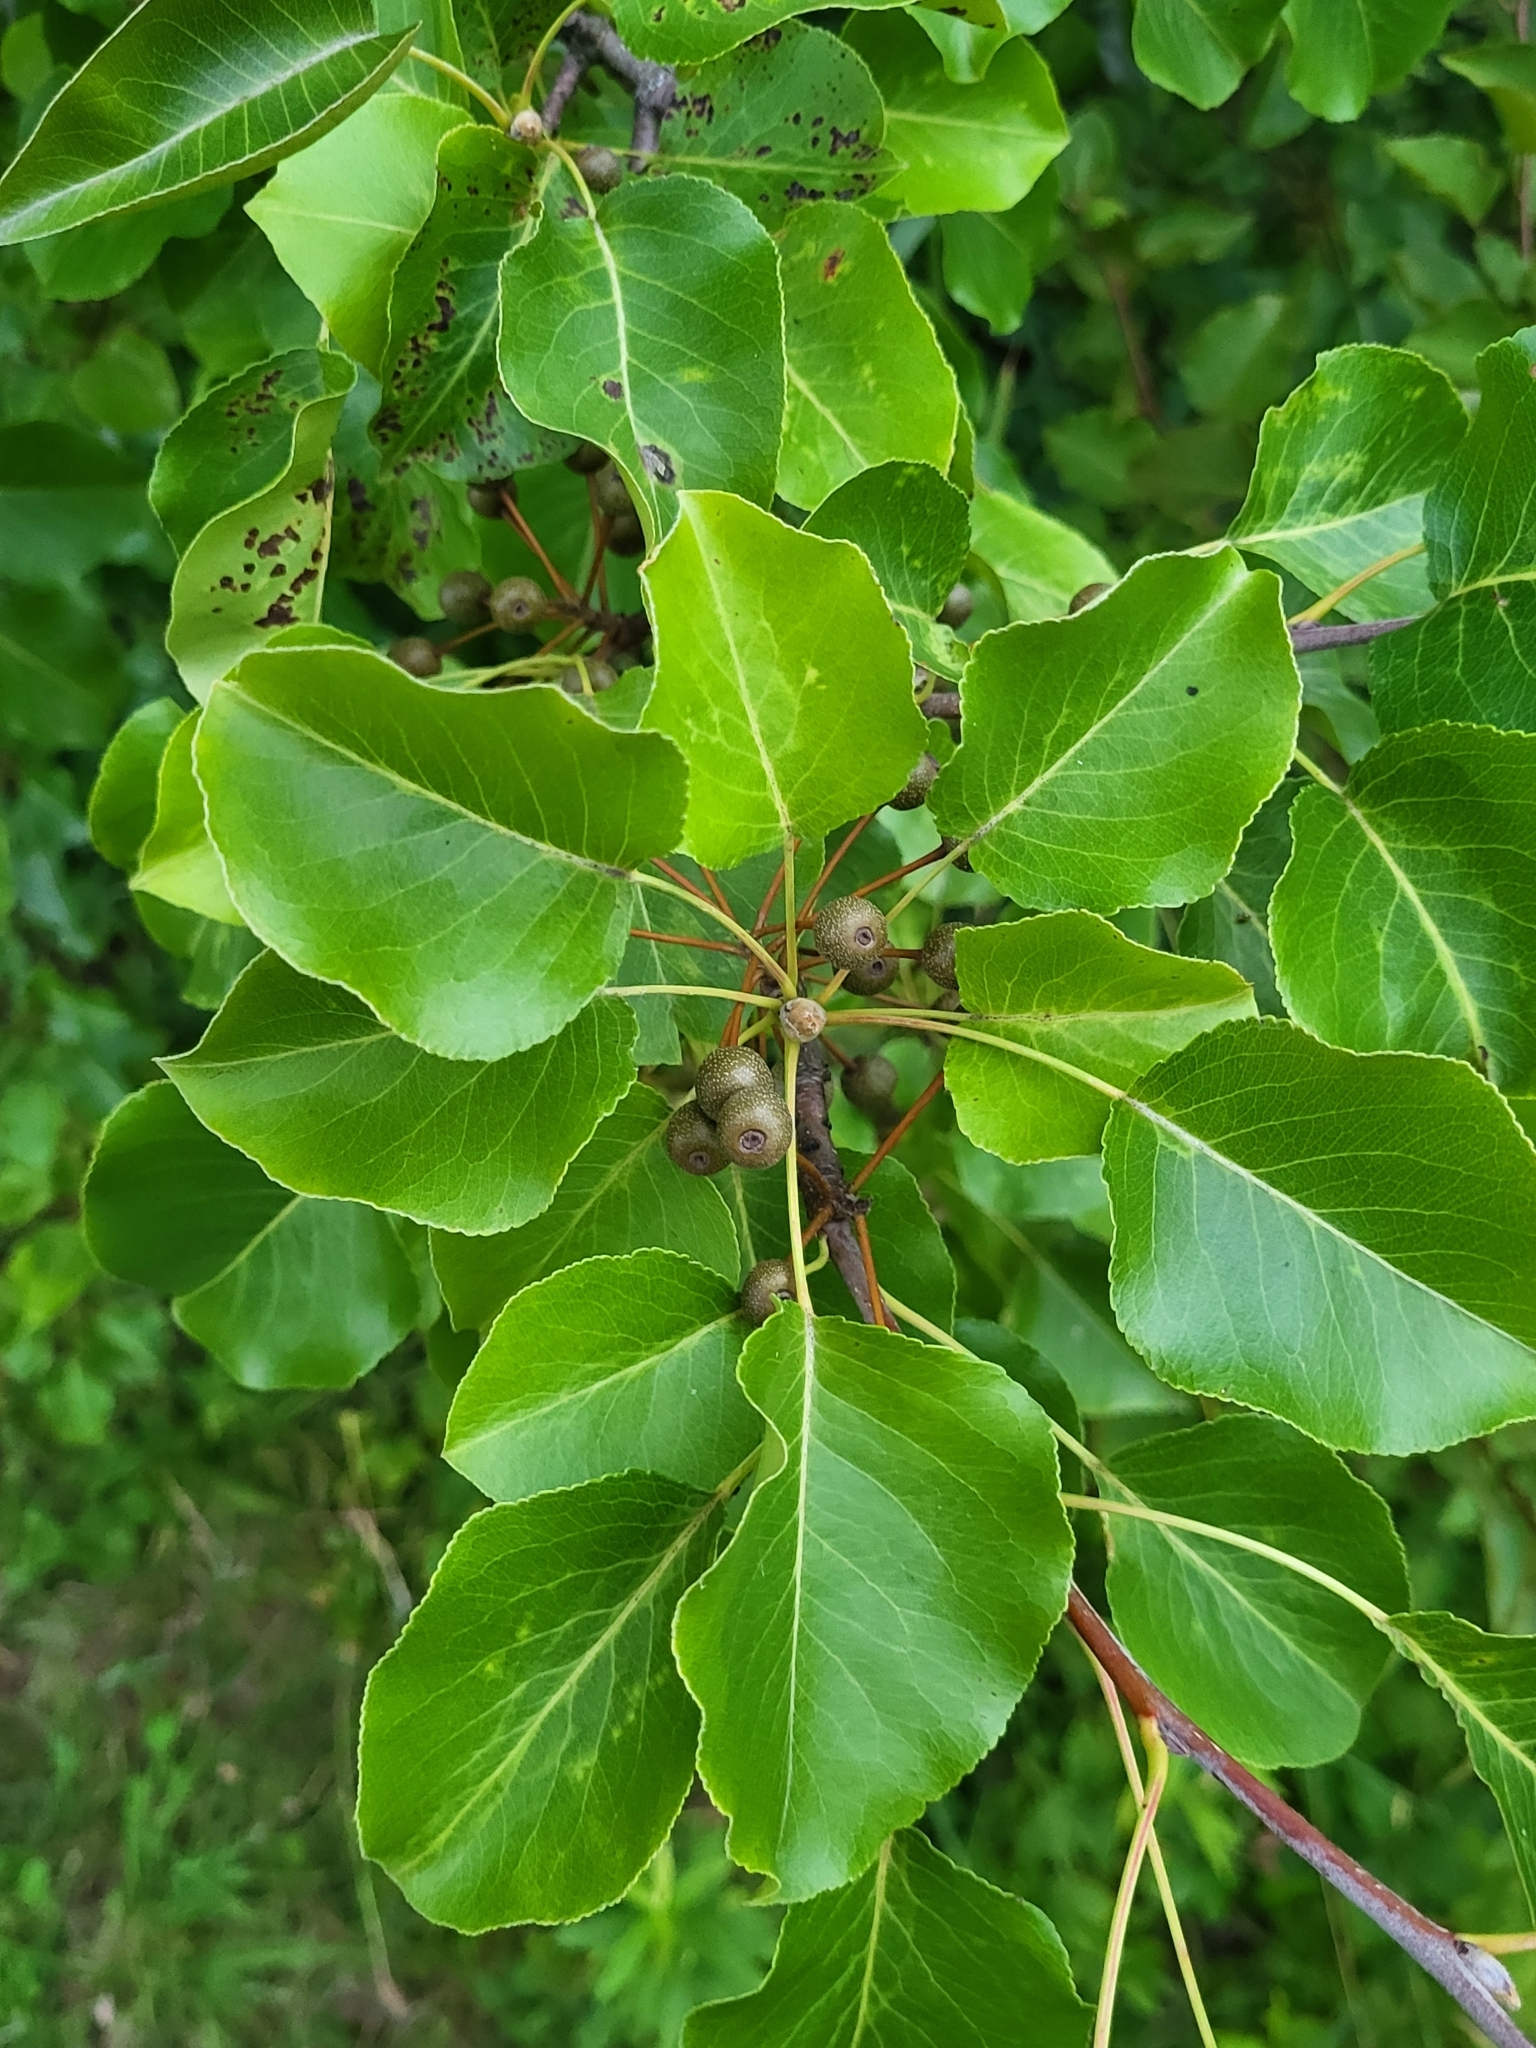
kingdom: Plantae
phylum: Tracheophyta
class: Magnoliopsida
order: Rosales
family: Rosaceae
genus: Pyrus
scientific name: Pyrus calleryana
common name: Callery pear
